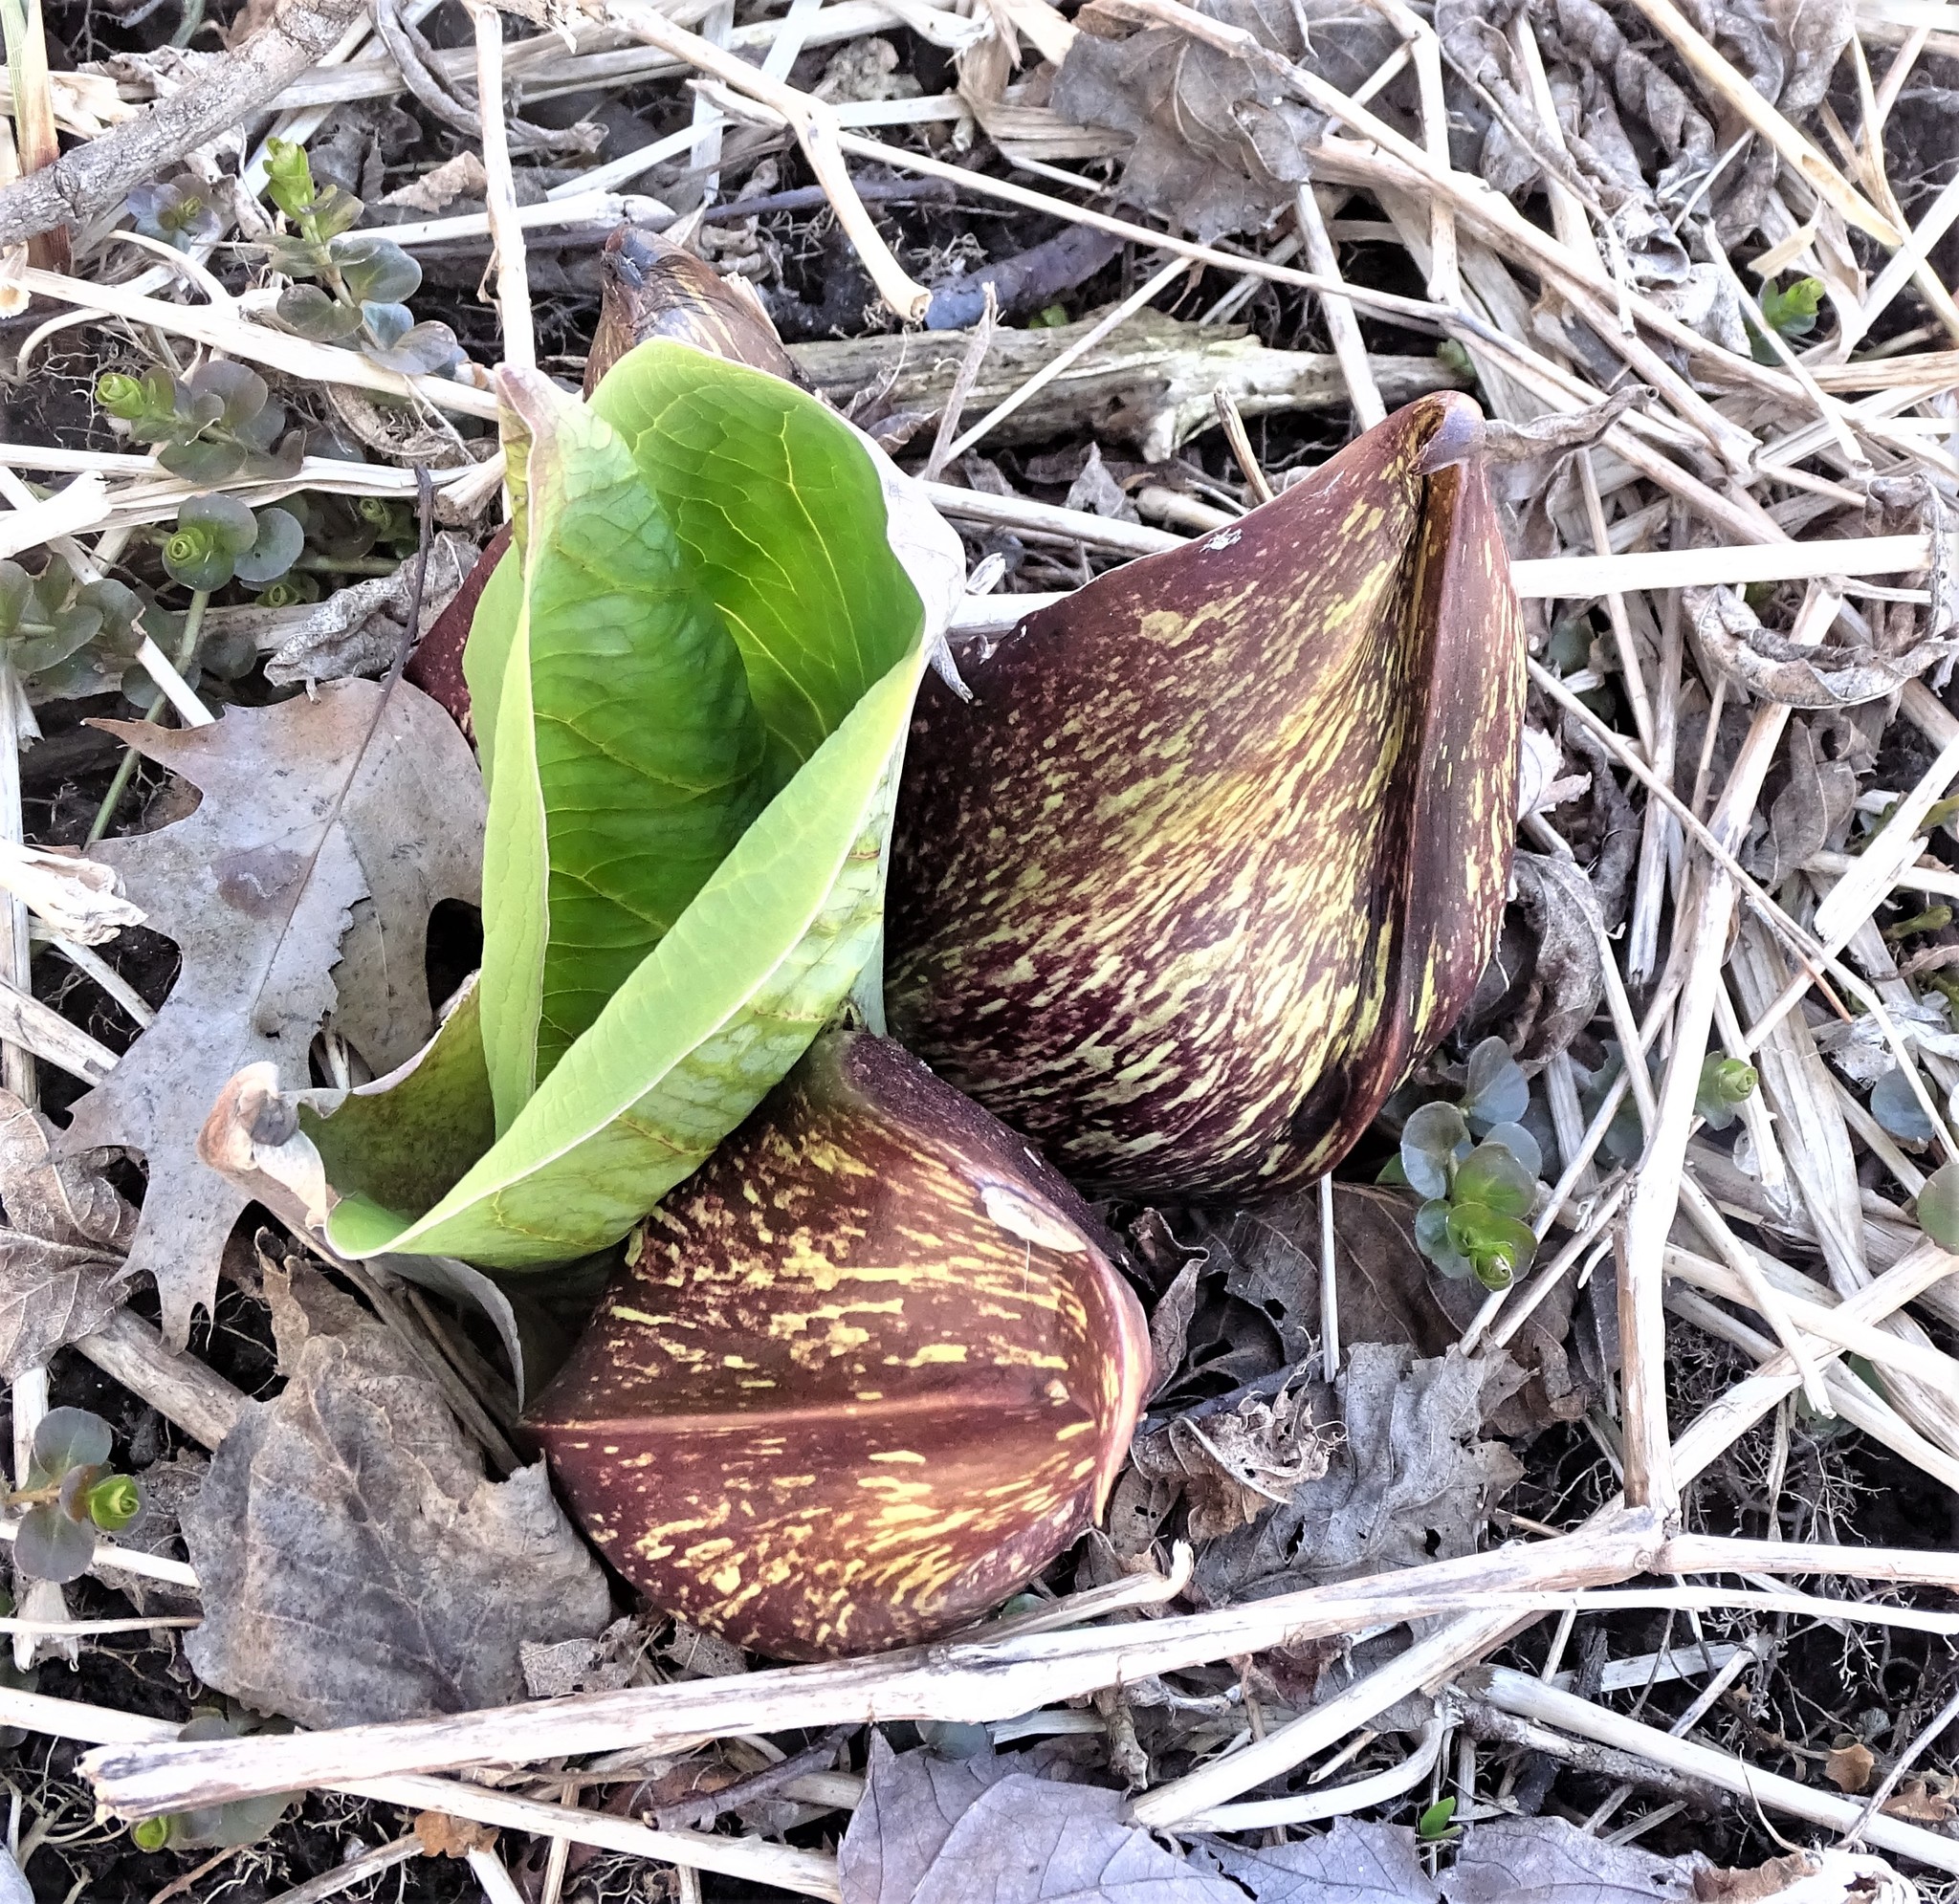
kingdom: Plantae
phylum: Tracheophyta
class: Liliopsida
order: Alismatales
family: Araceae
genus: Symplocarpus
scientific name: Symplocarpus foetidus
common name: Eastern skunk cabbage
